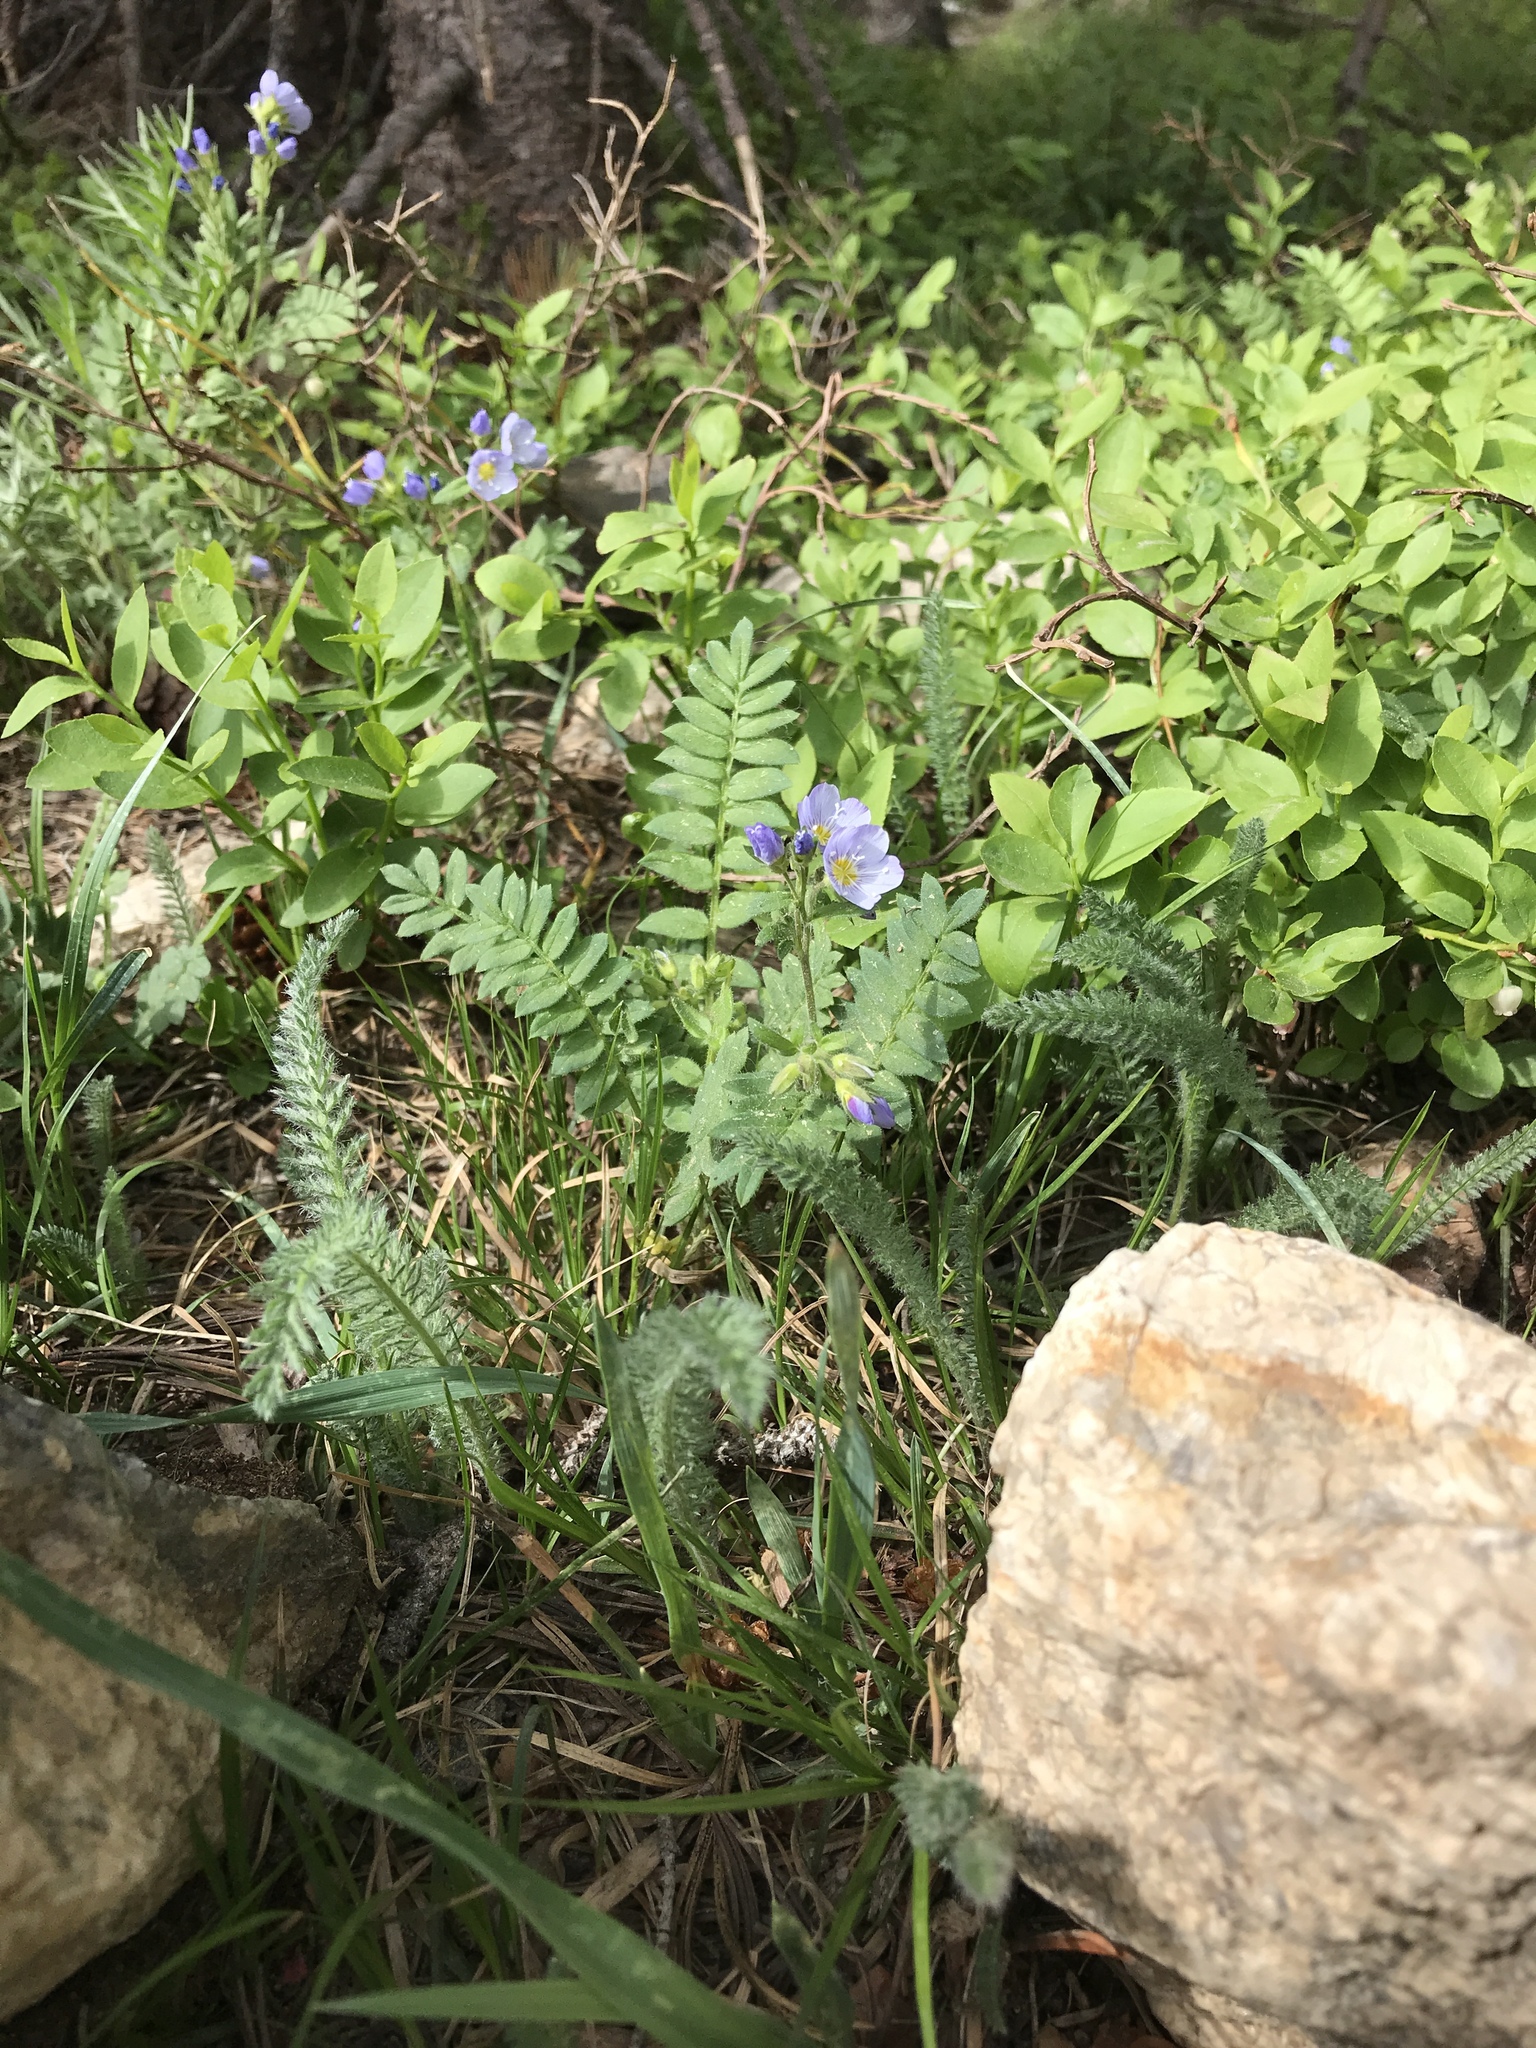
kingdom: Plantae
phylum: Tracheophyta
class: Magnoliopsida
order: Ericales
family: Polemoniaceae
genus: Polemonium
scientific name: Polemonium pulcherrimum
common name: Short jacob's-ladder
